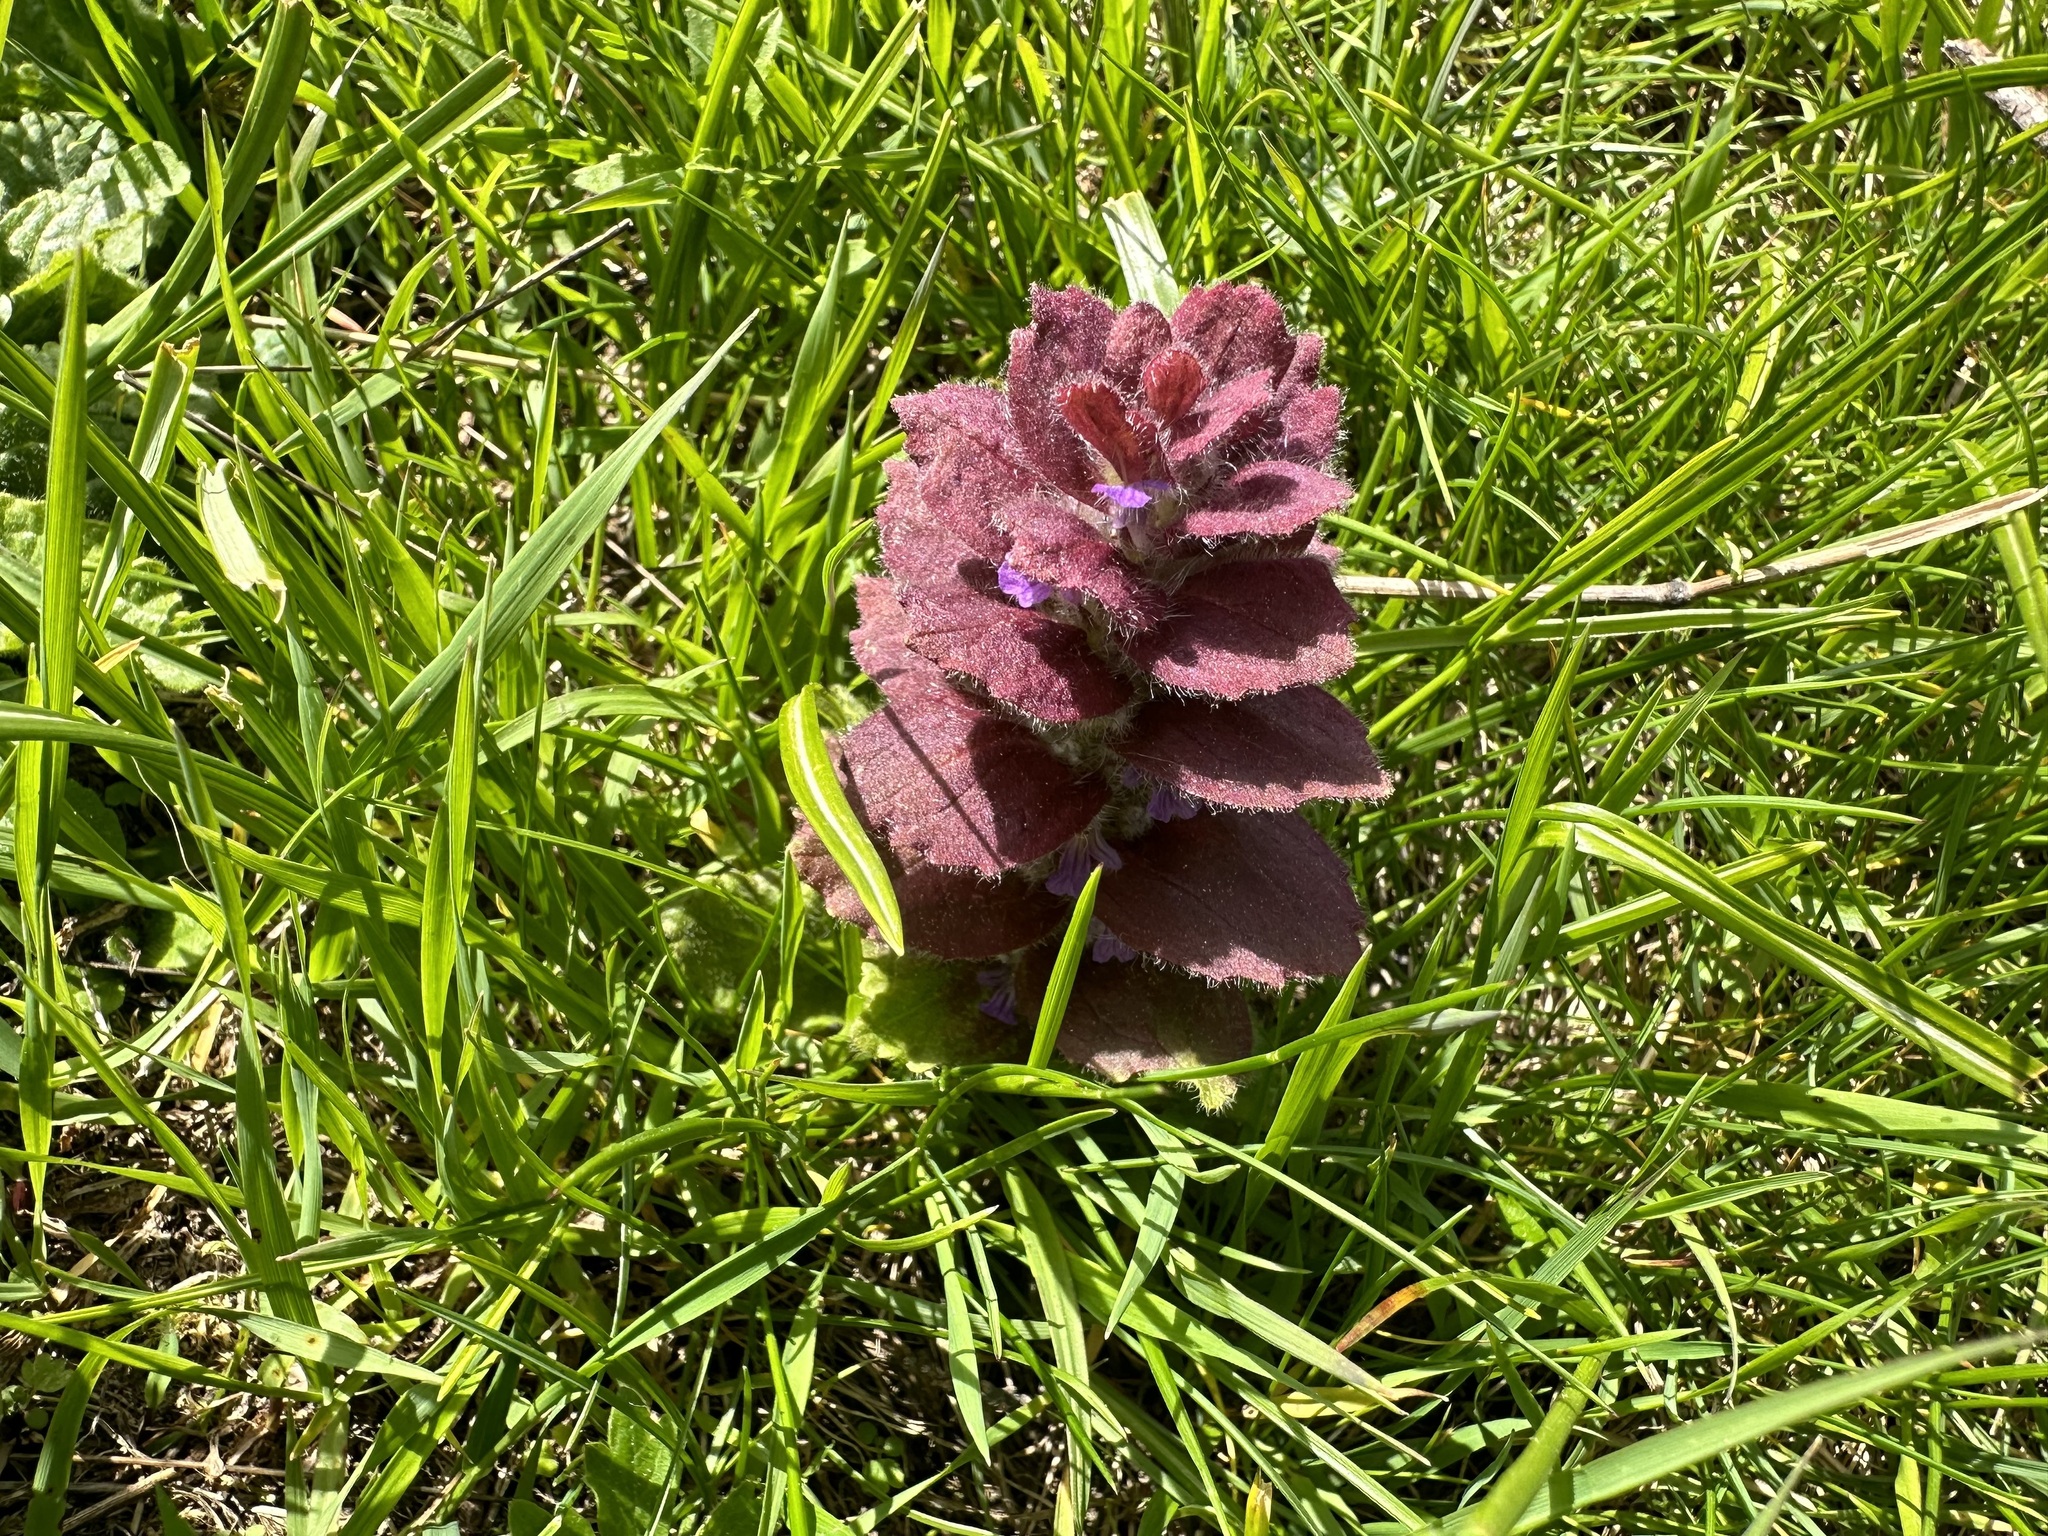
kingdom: Plantae
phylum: Tracheophyta
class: Magnoliopsida
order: Lamiales
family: Lamiaceae
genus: Ajuga
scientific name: Ajuga pyramidalis
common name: Pyramid bugle
